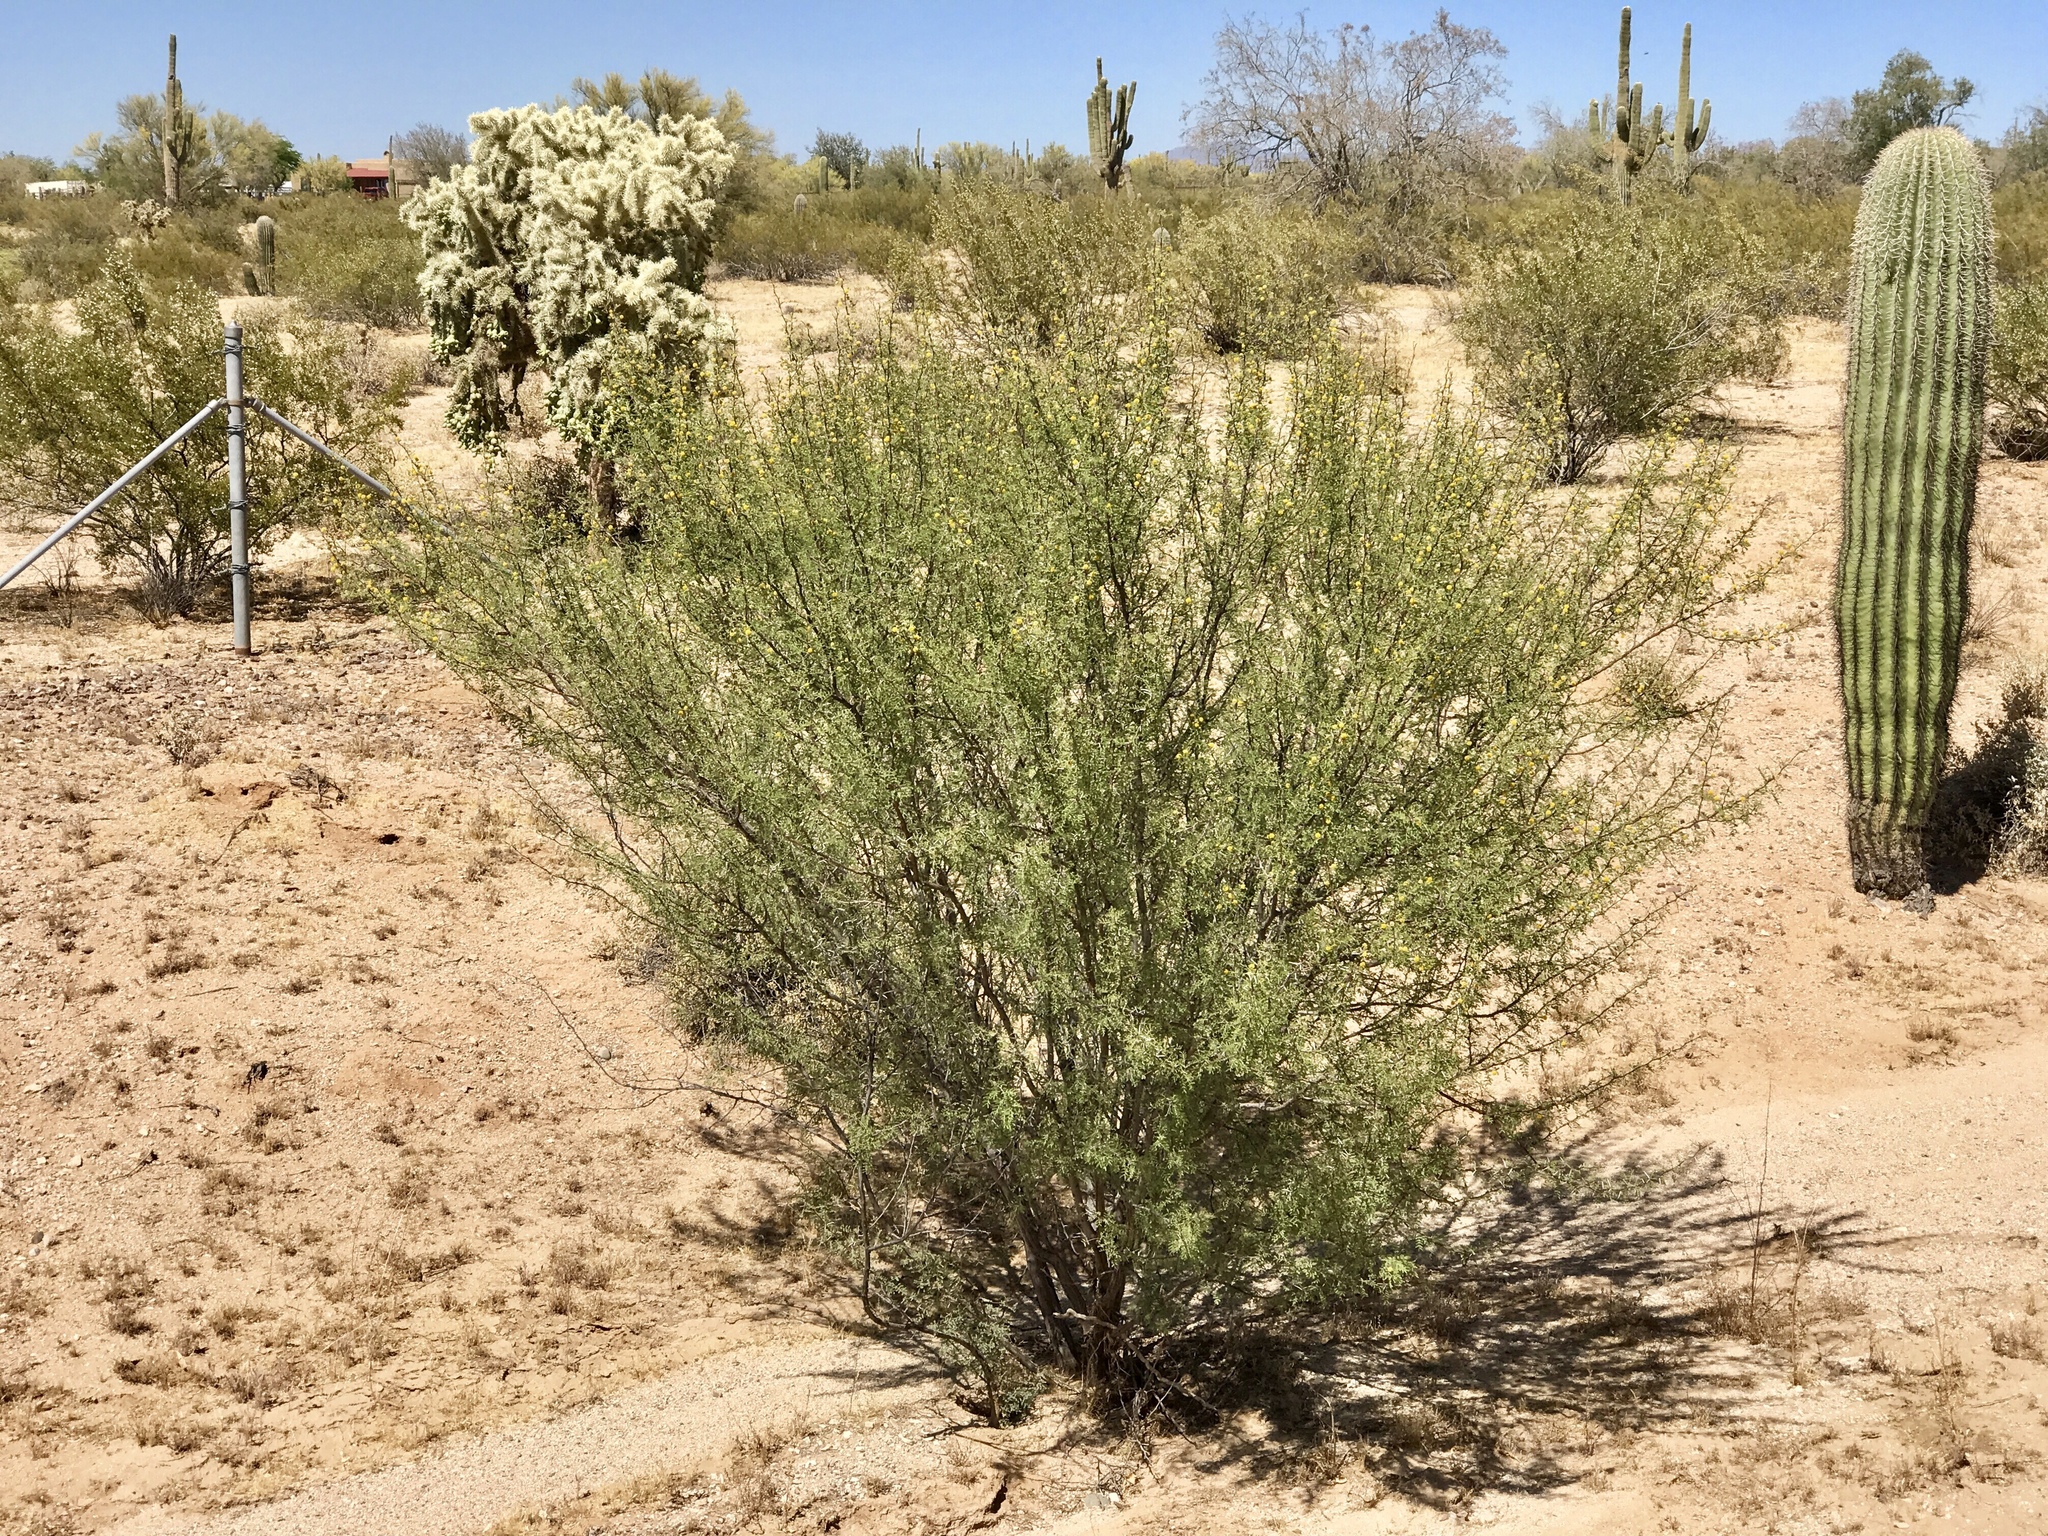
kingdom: Plantae
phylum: Tracheophyta
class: Magnoliopsida
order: Fabales
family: Fabaceae
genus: Vachellia
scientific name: Vachellia constricta
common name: Mescat acacia
